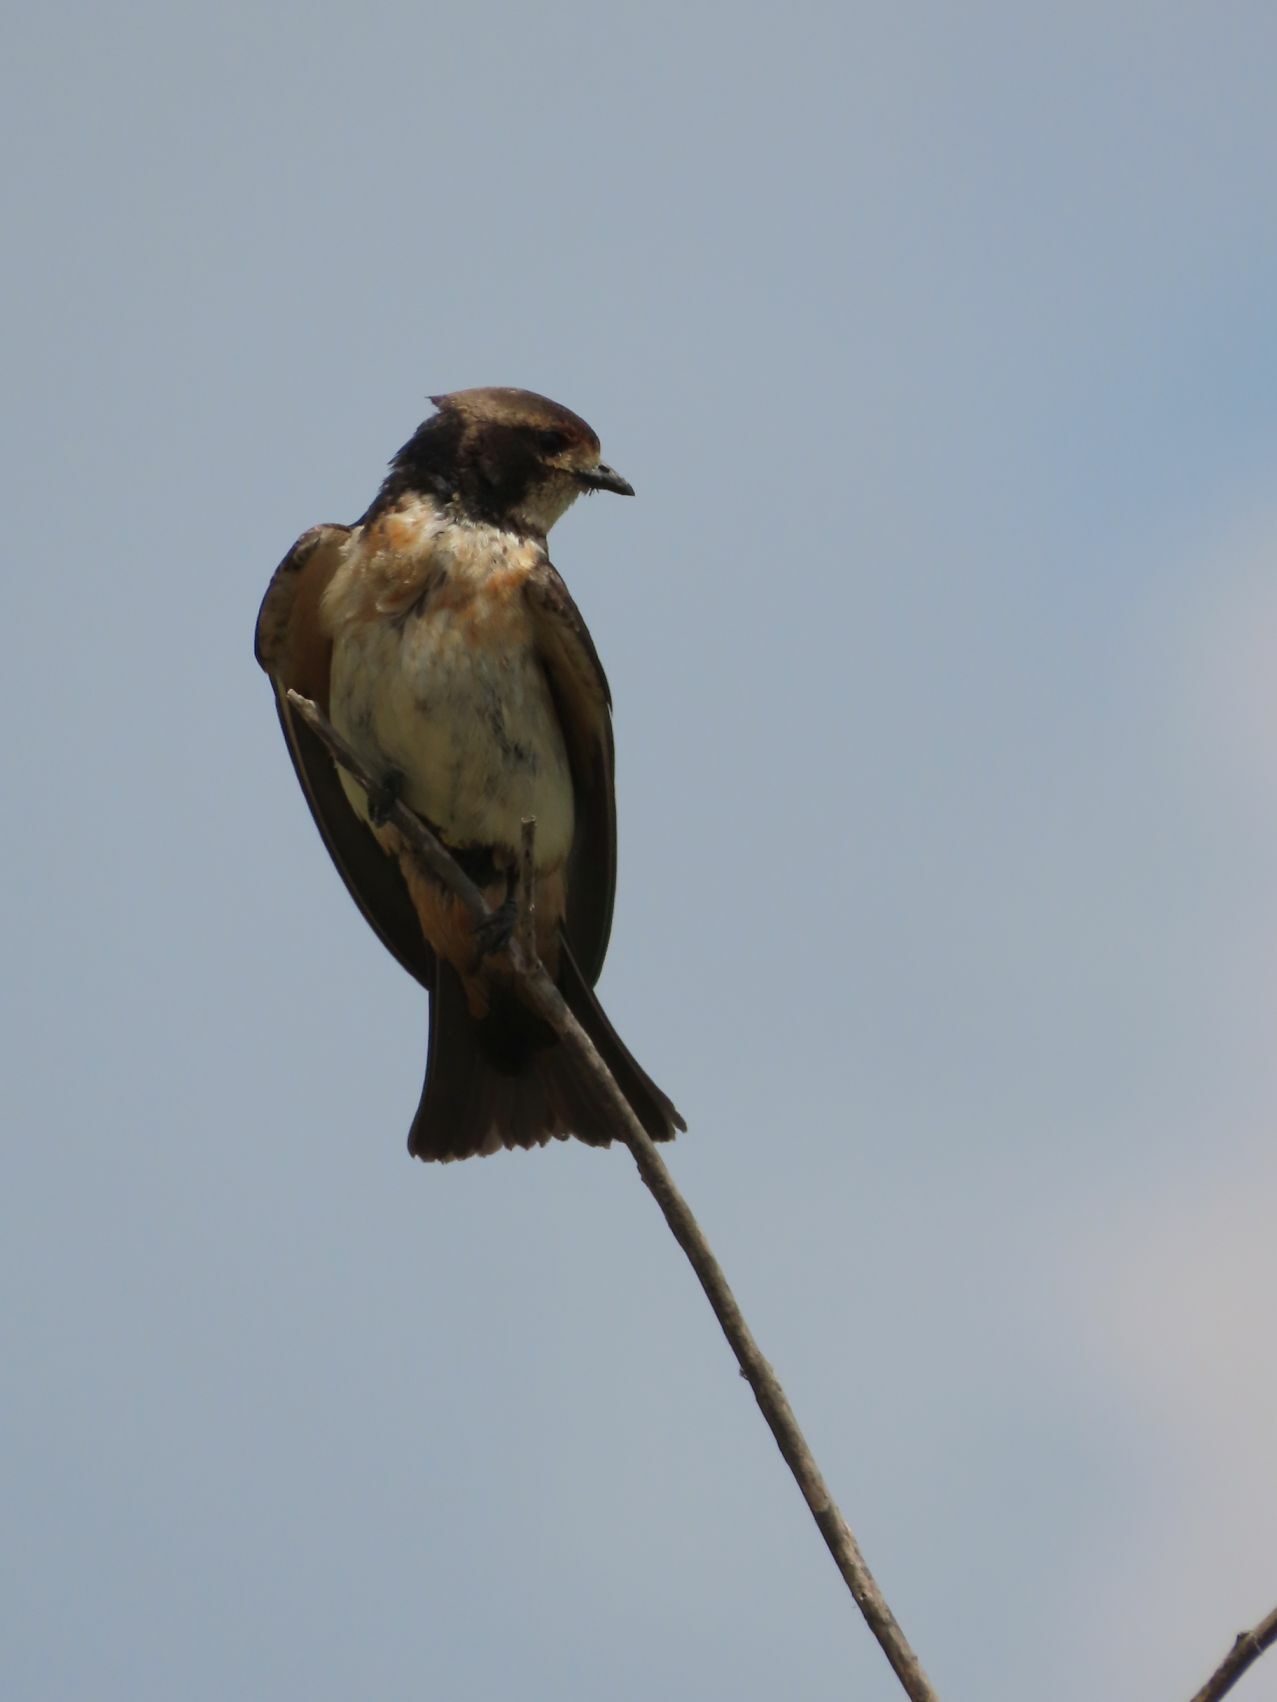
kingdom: Animalia
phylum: Chordata
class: Aves
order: Passeriformes
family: Hirundinidae
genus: Petrochelidon
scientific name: Petrochelidon spilodera
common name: South african swallow
